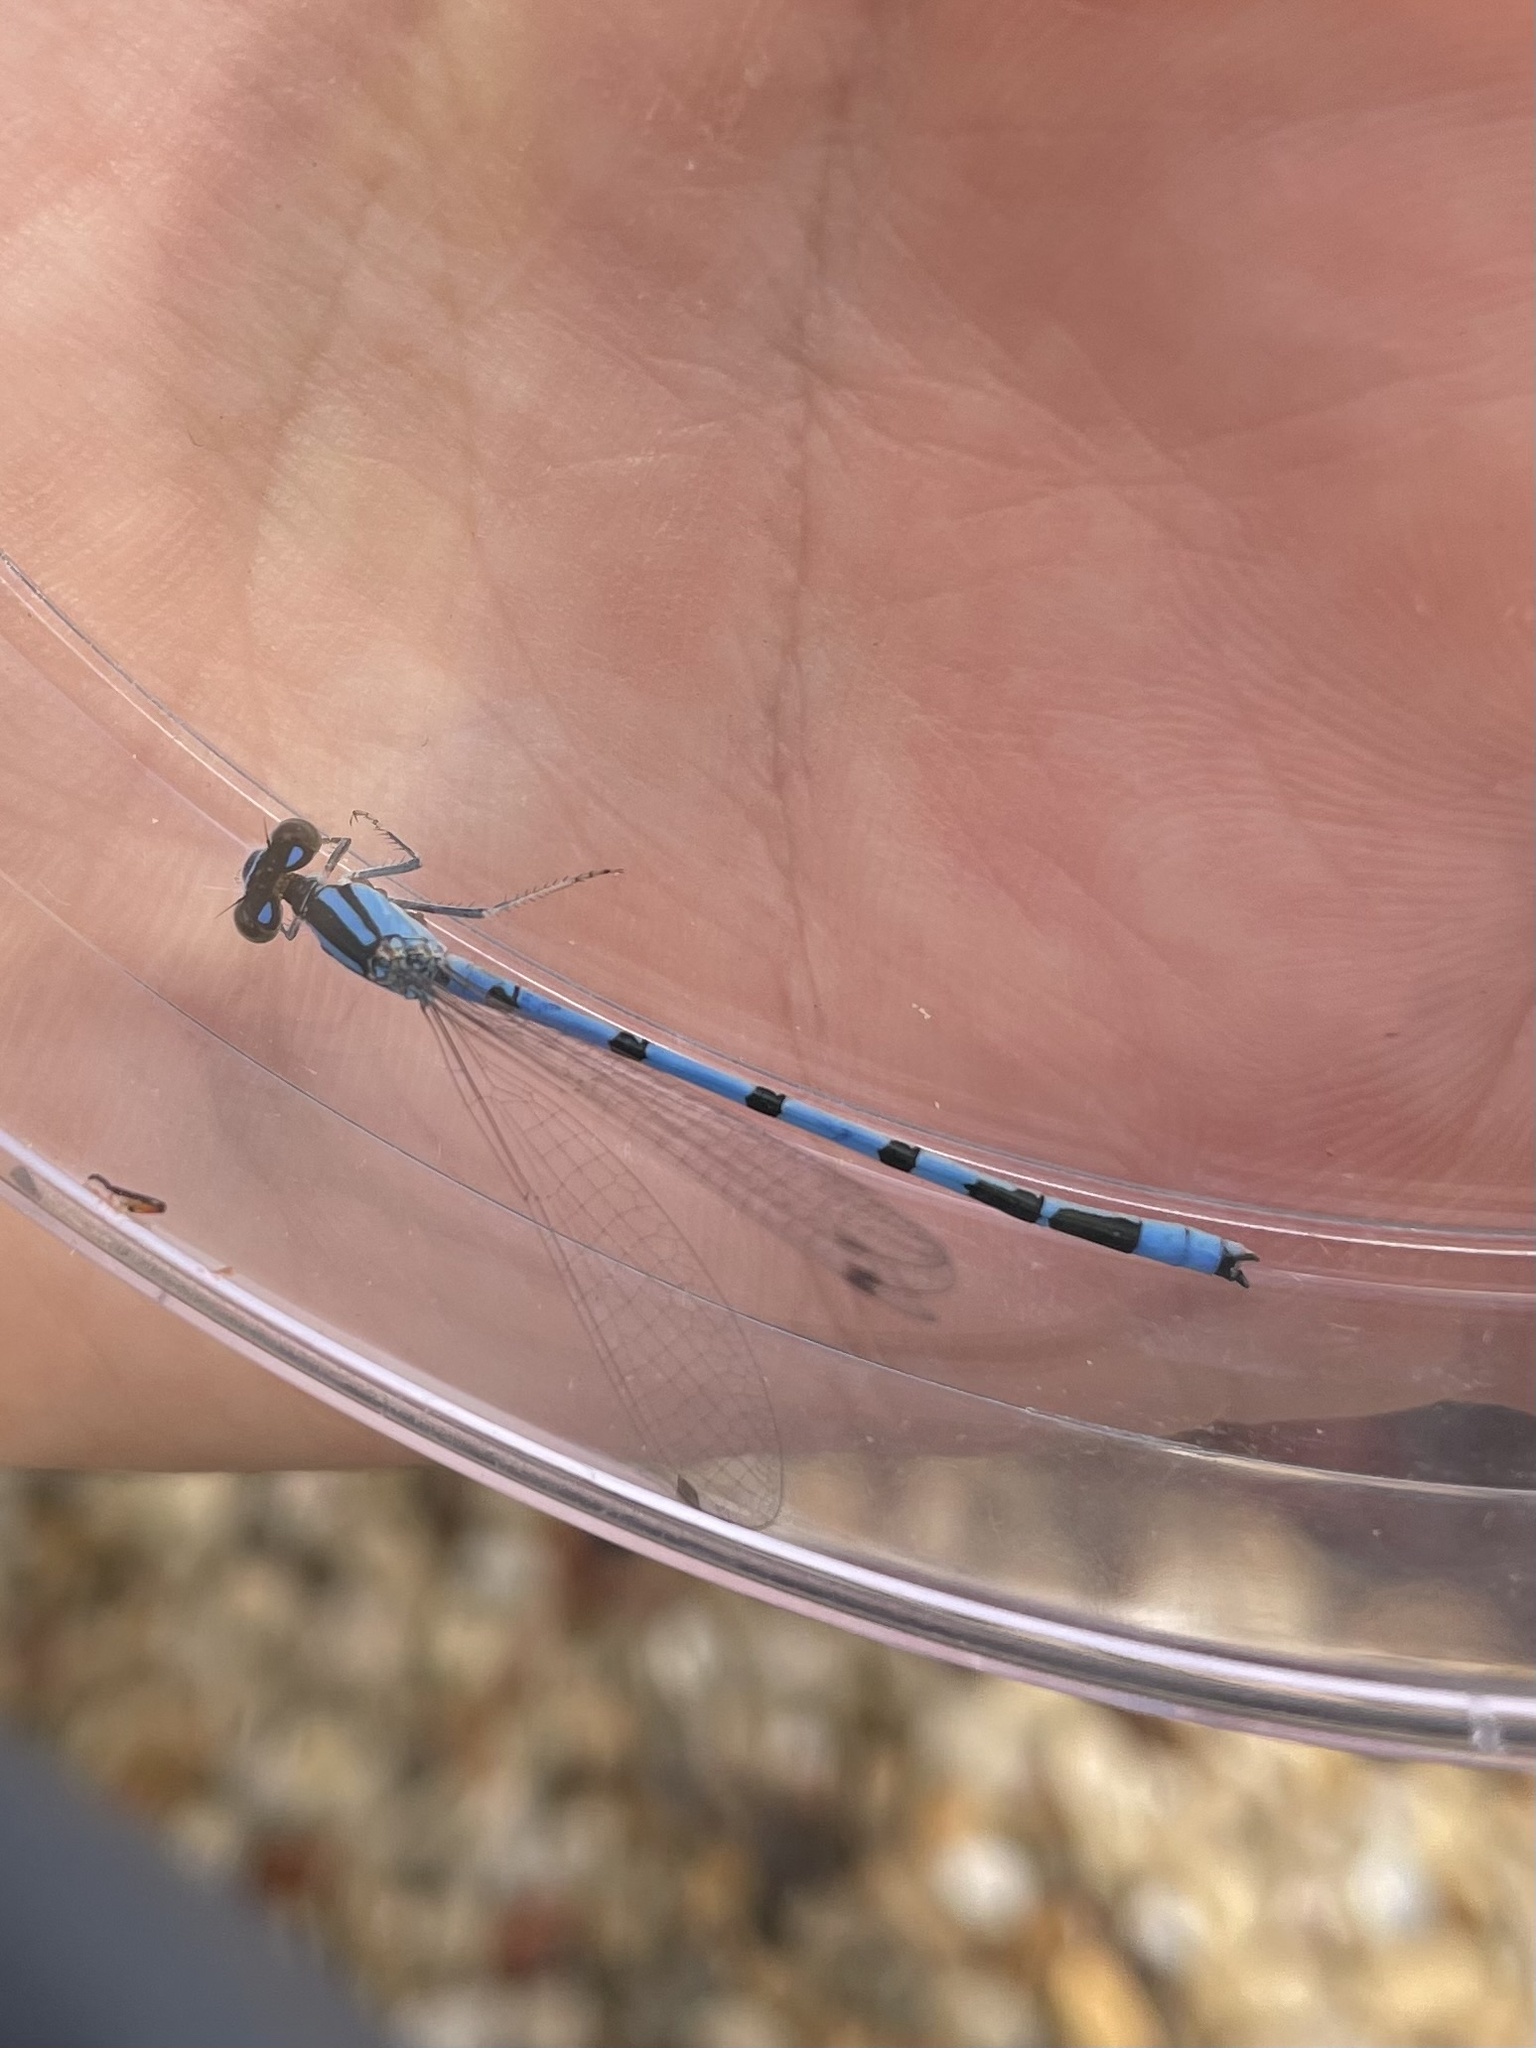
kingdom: Animalia
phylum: Arthropoda
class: Insecta
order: Odonata
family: Coenagrionidae
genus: Enallagma
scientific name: Enallagma civile
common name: Damselfly
